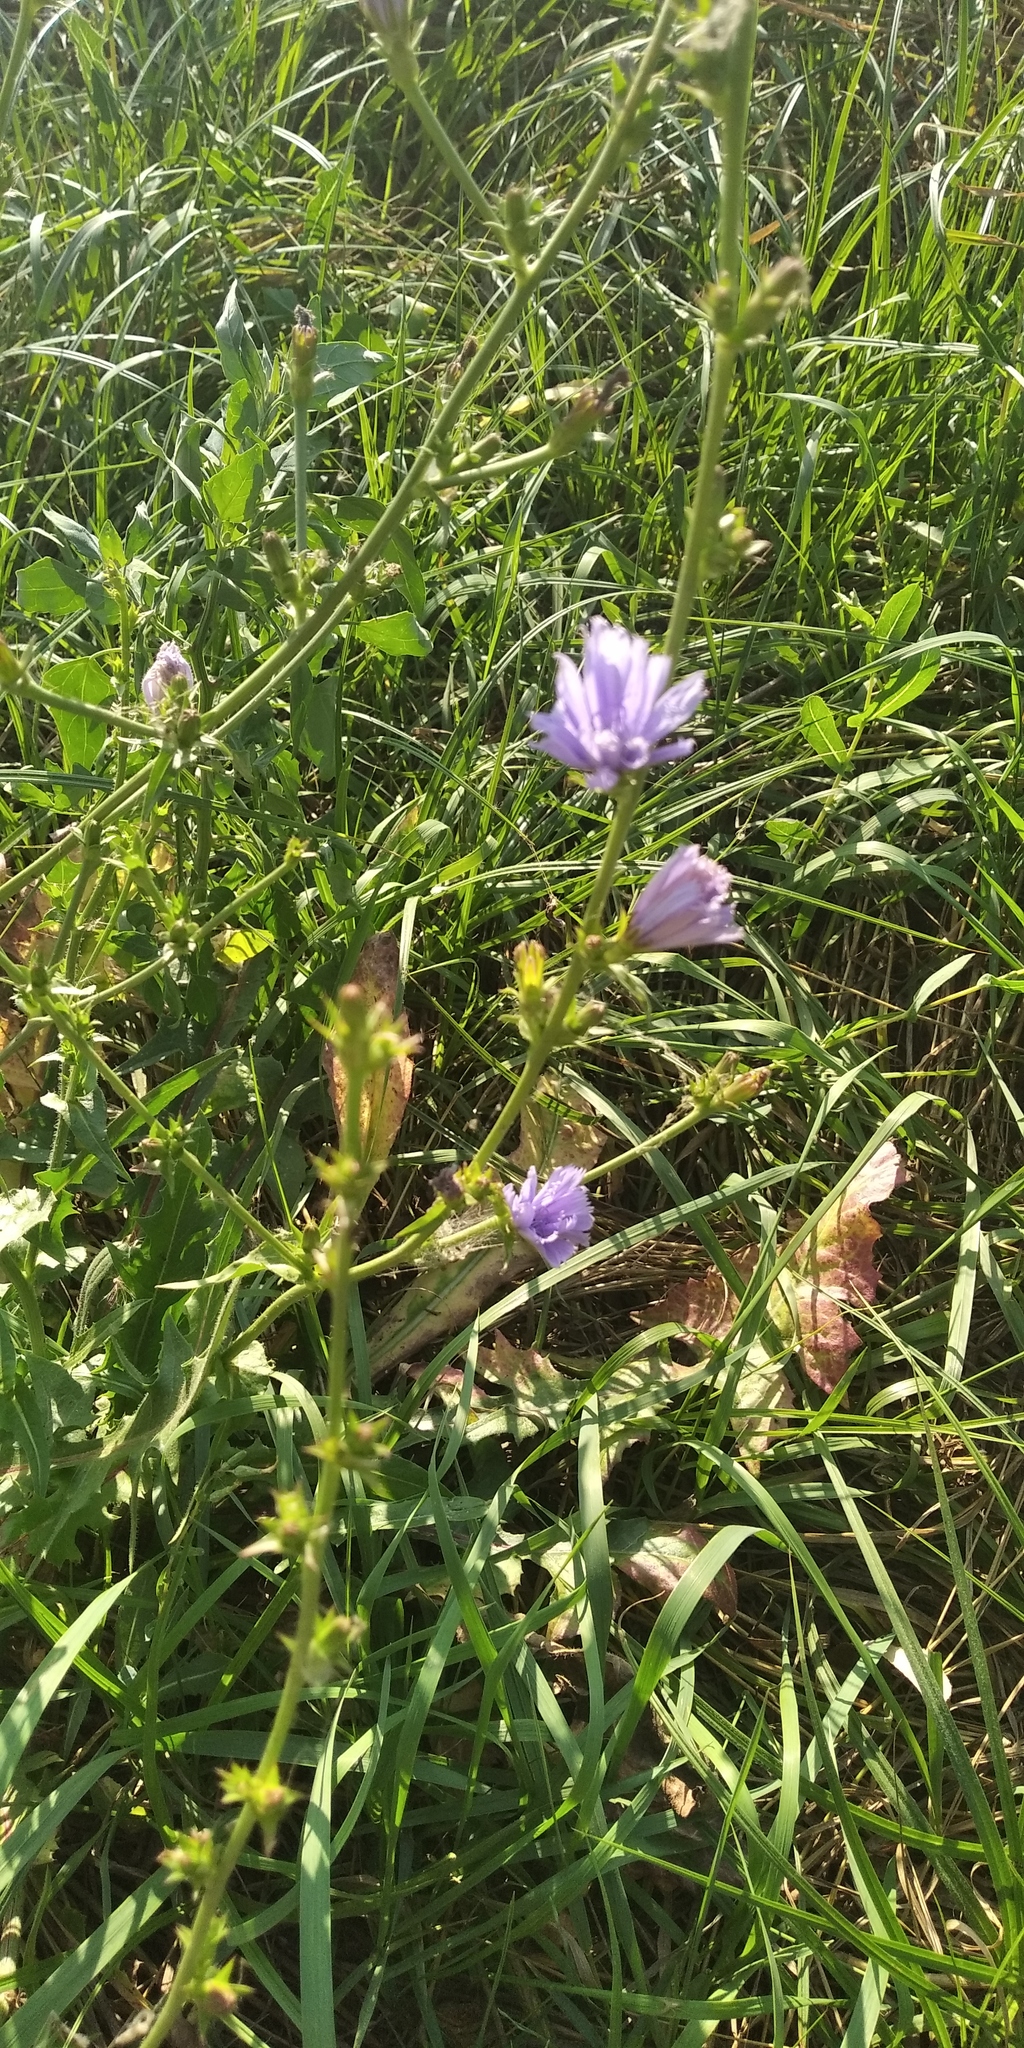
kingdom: Plantae
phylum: Tracheophyta
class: Magnoliopsida
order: Asterales
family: Asteraceae
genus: Cichorium
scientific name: Cichorium intybus
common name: Chicory
